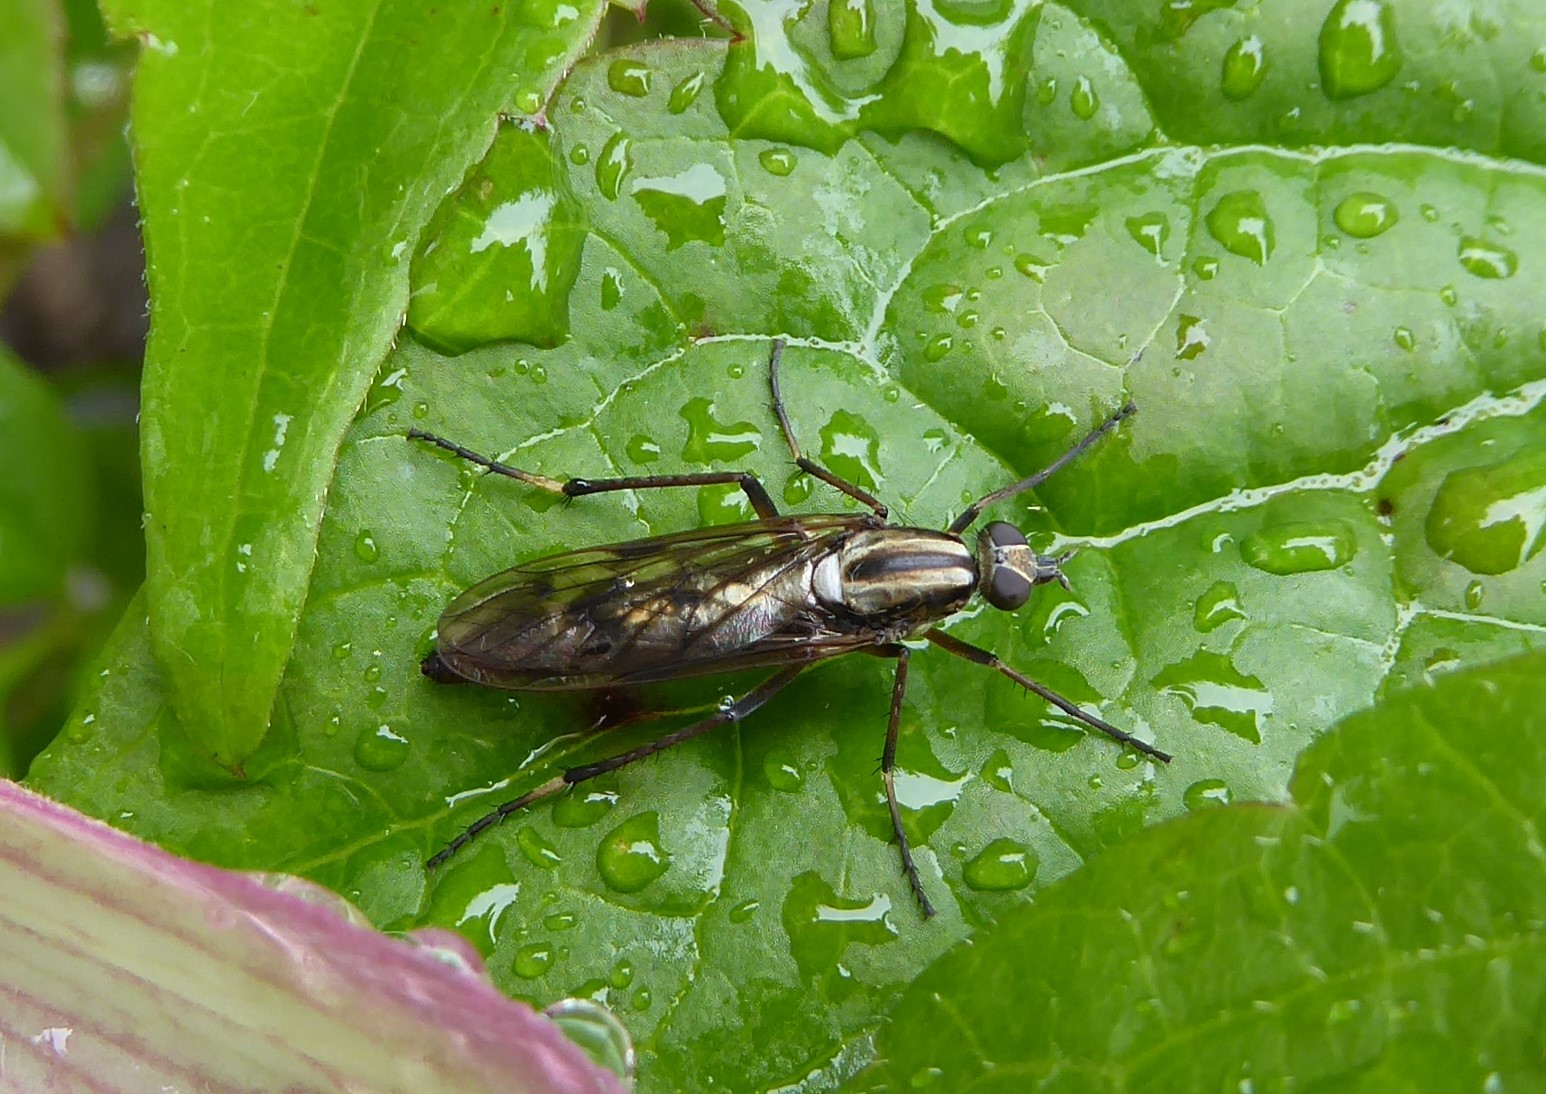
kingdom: Animalia
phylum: Arthropoda
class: Insecta
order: Diptera
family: Therevidae
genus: Anabarhynchus
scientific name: Anabarhynchus micans
